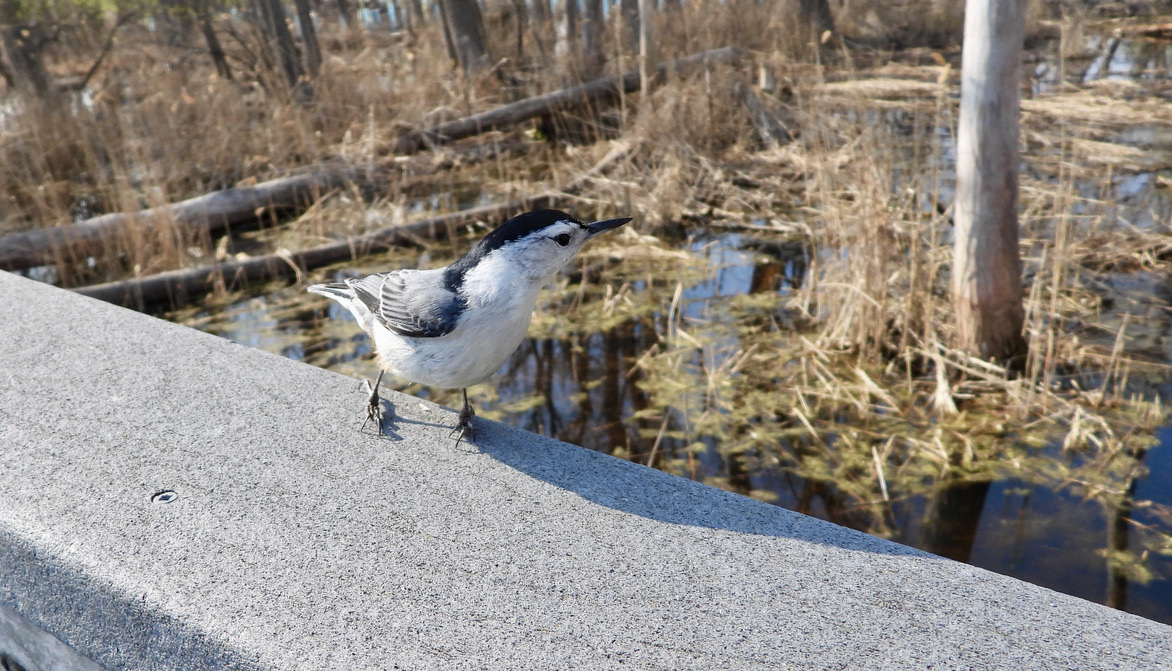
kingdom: Animalia
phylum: Chordata
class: Aves
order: Passeriformes
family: Sittidae
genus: Sitta
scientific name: Sitta carolinensis
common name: White-breasted nuthatch
